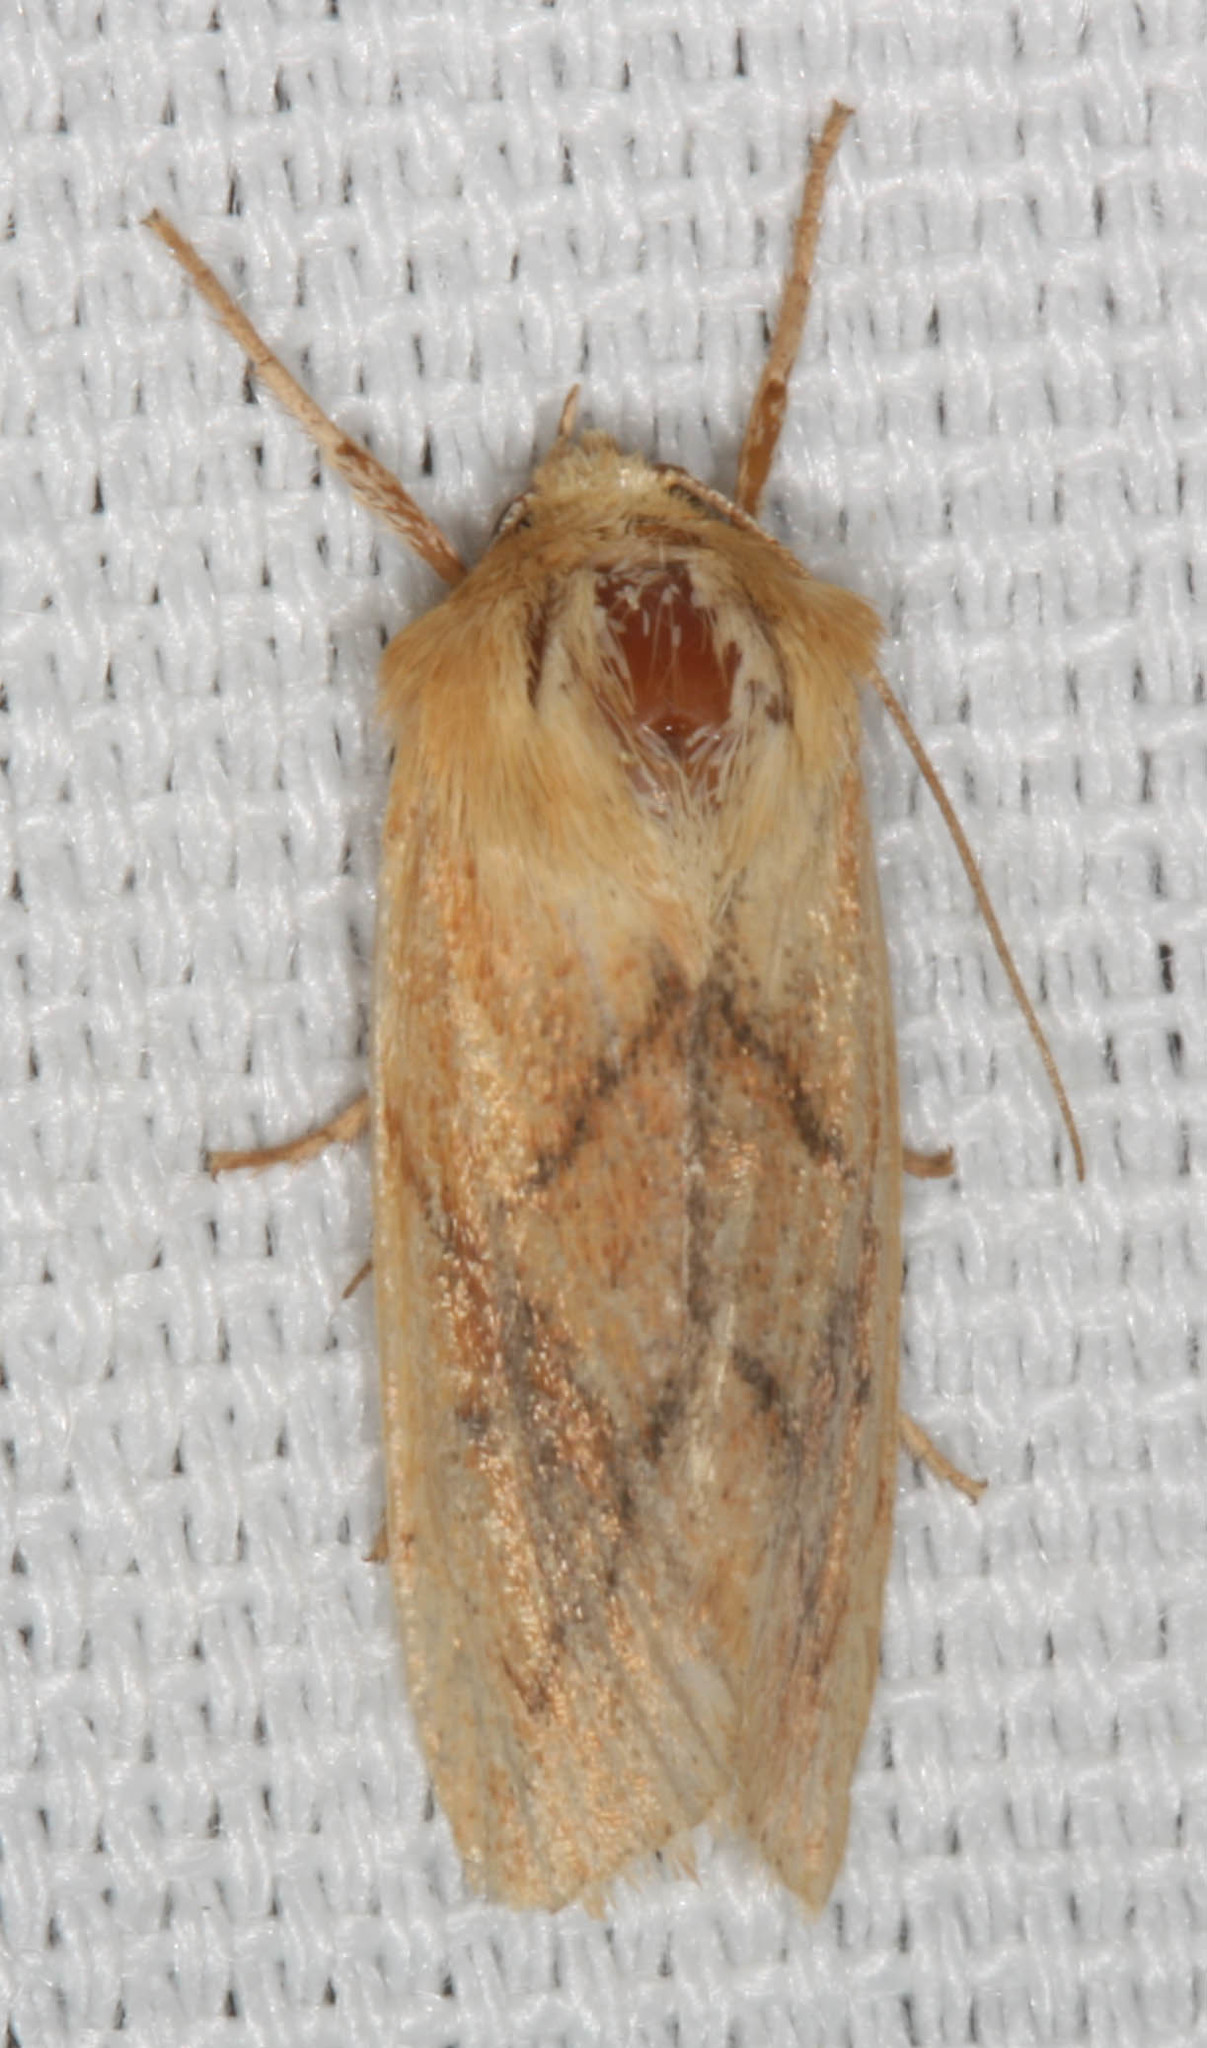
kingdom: Animalia
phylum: Arthropoda
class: Insecta
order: Lepidoptera
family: Noctuidae
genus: Zosteropoda
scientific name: Zosteropoda hirtipes
